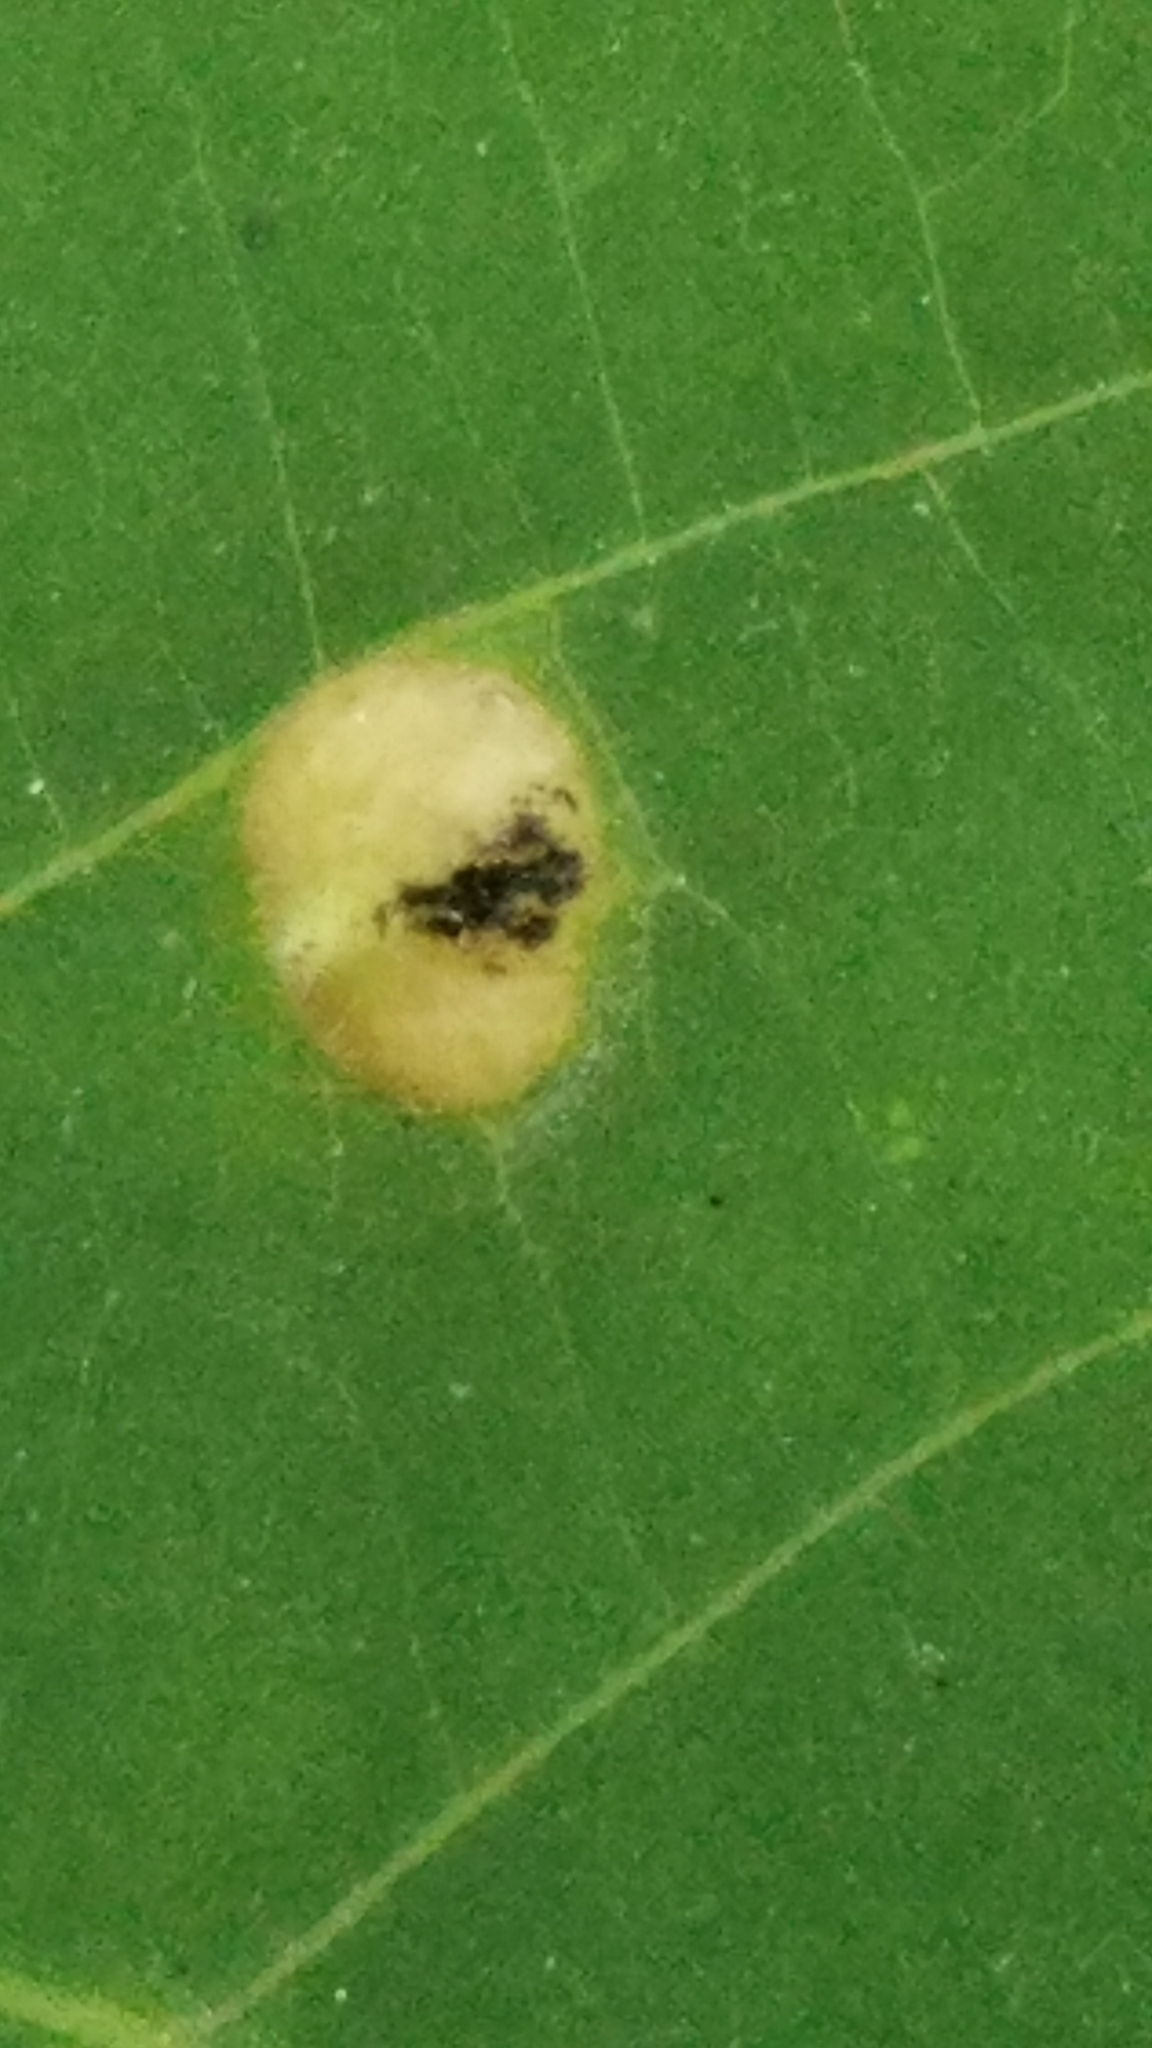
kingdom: Animalia
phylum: Arthropoda
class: Insecta
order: Hemiptera
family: Phylloxeridae
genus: Phylloxera
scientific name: Phylloxera caryaefallax
